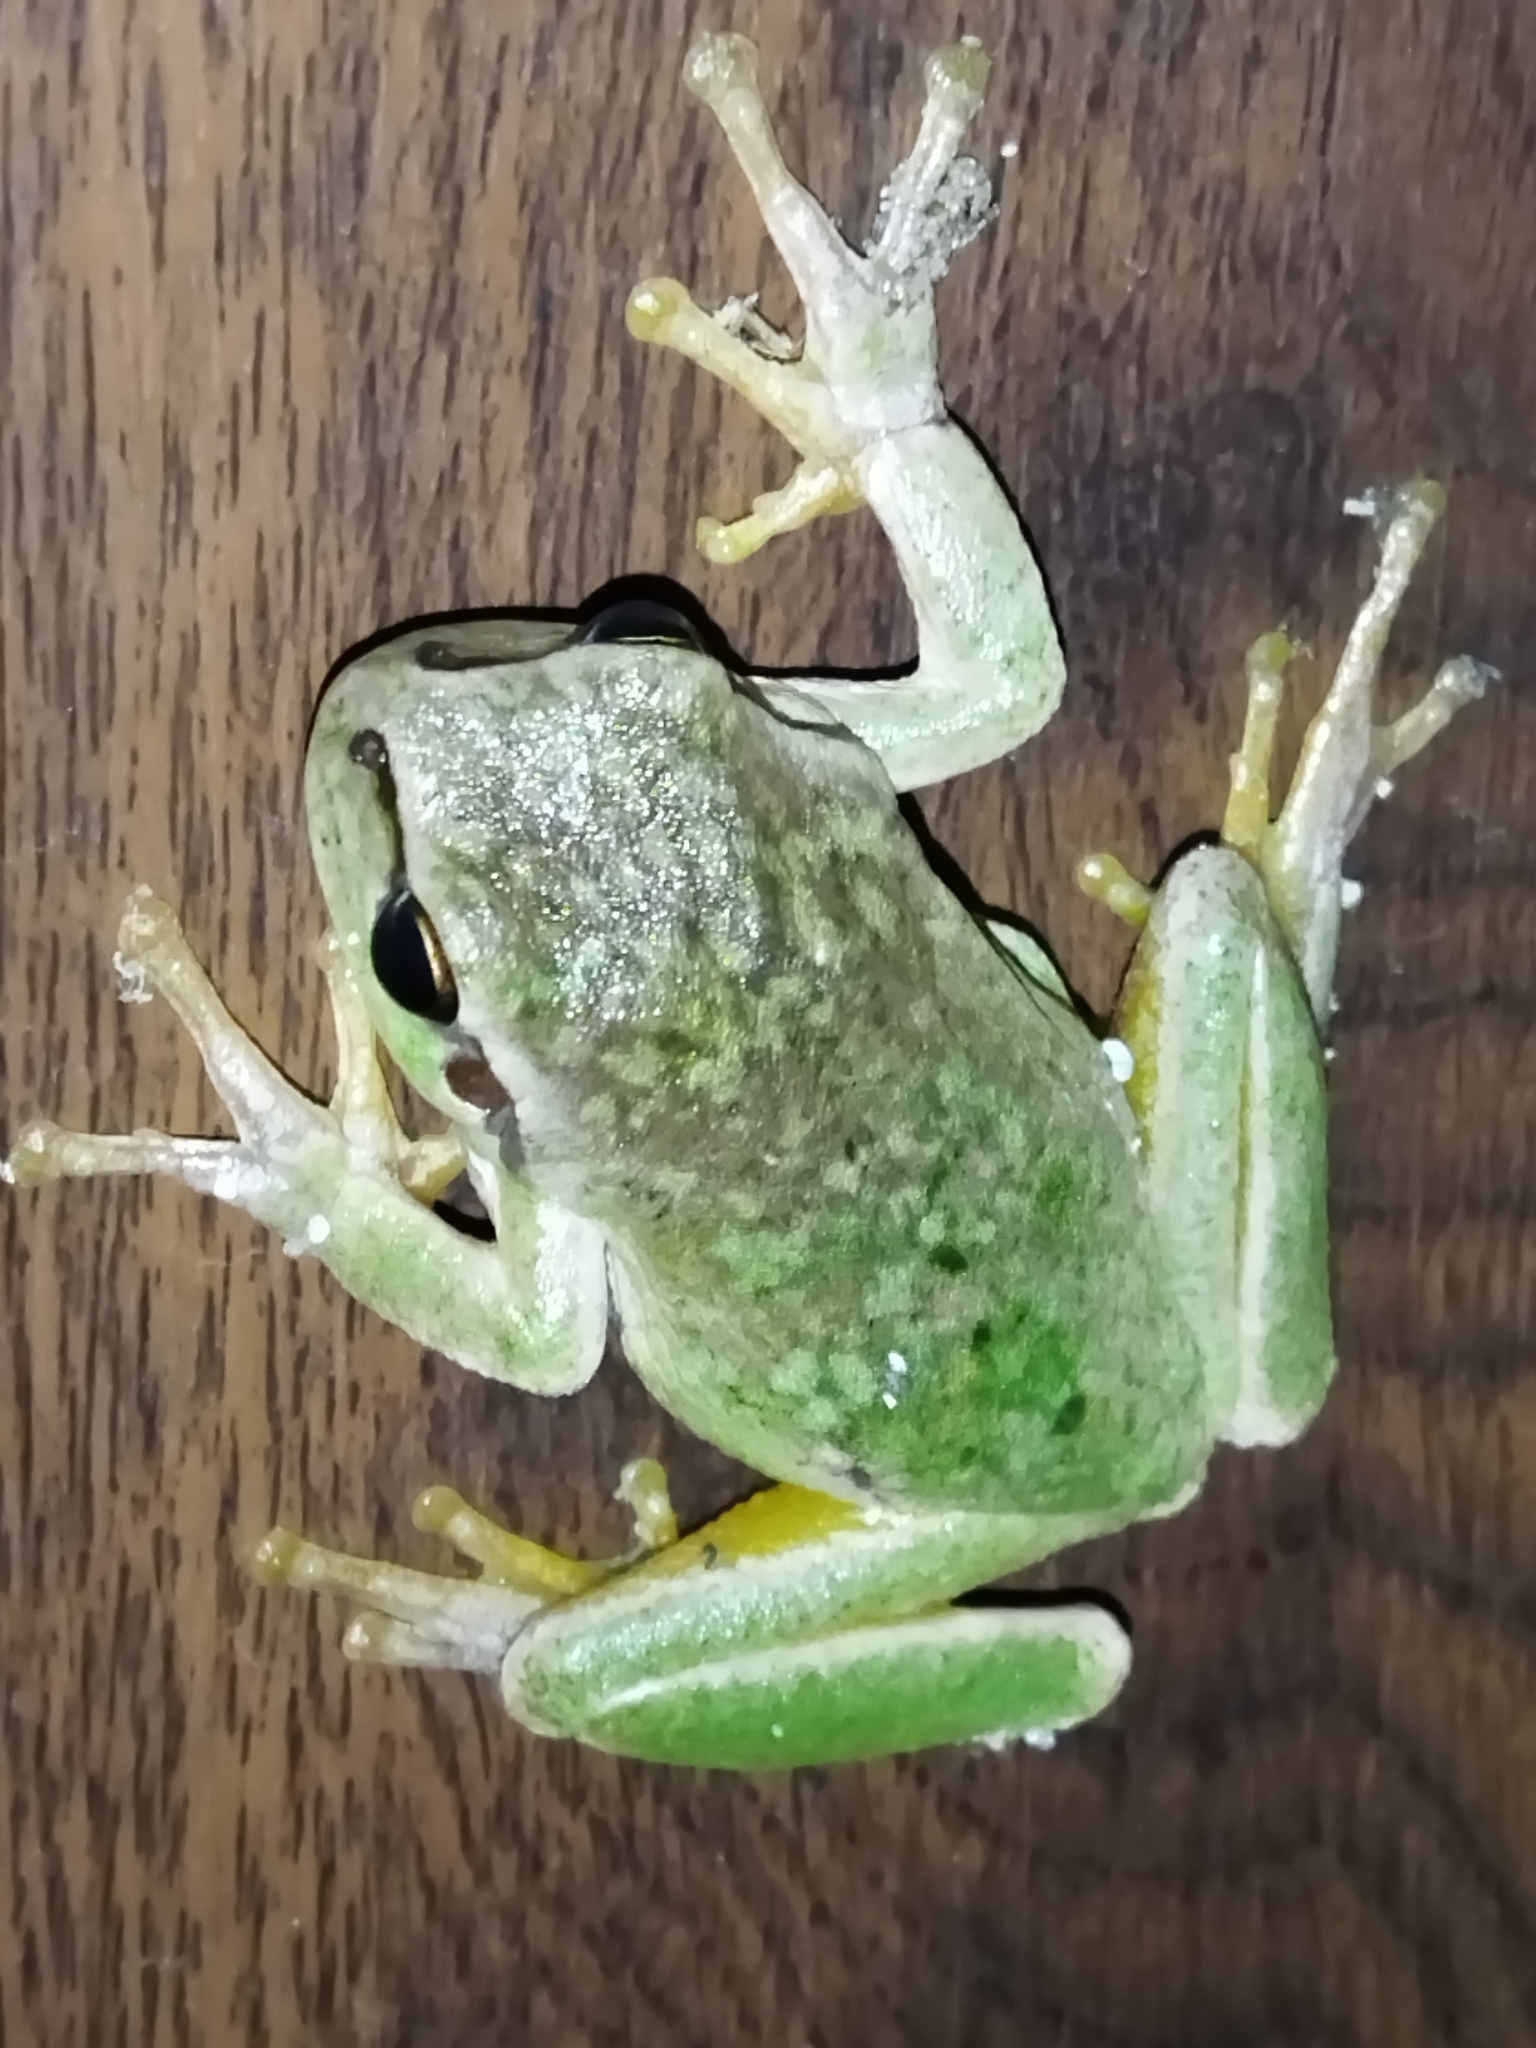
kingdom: Animalia
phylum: Chordata
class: Amphibia
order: Anura
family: Hylidae
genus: Hyla
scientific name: Hyla orientalis
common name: Caucasian treefrog
